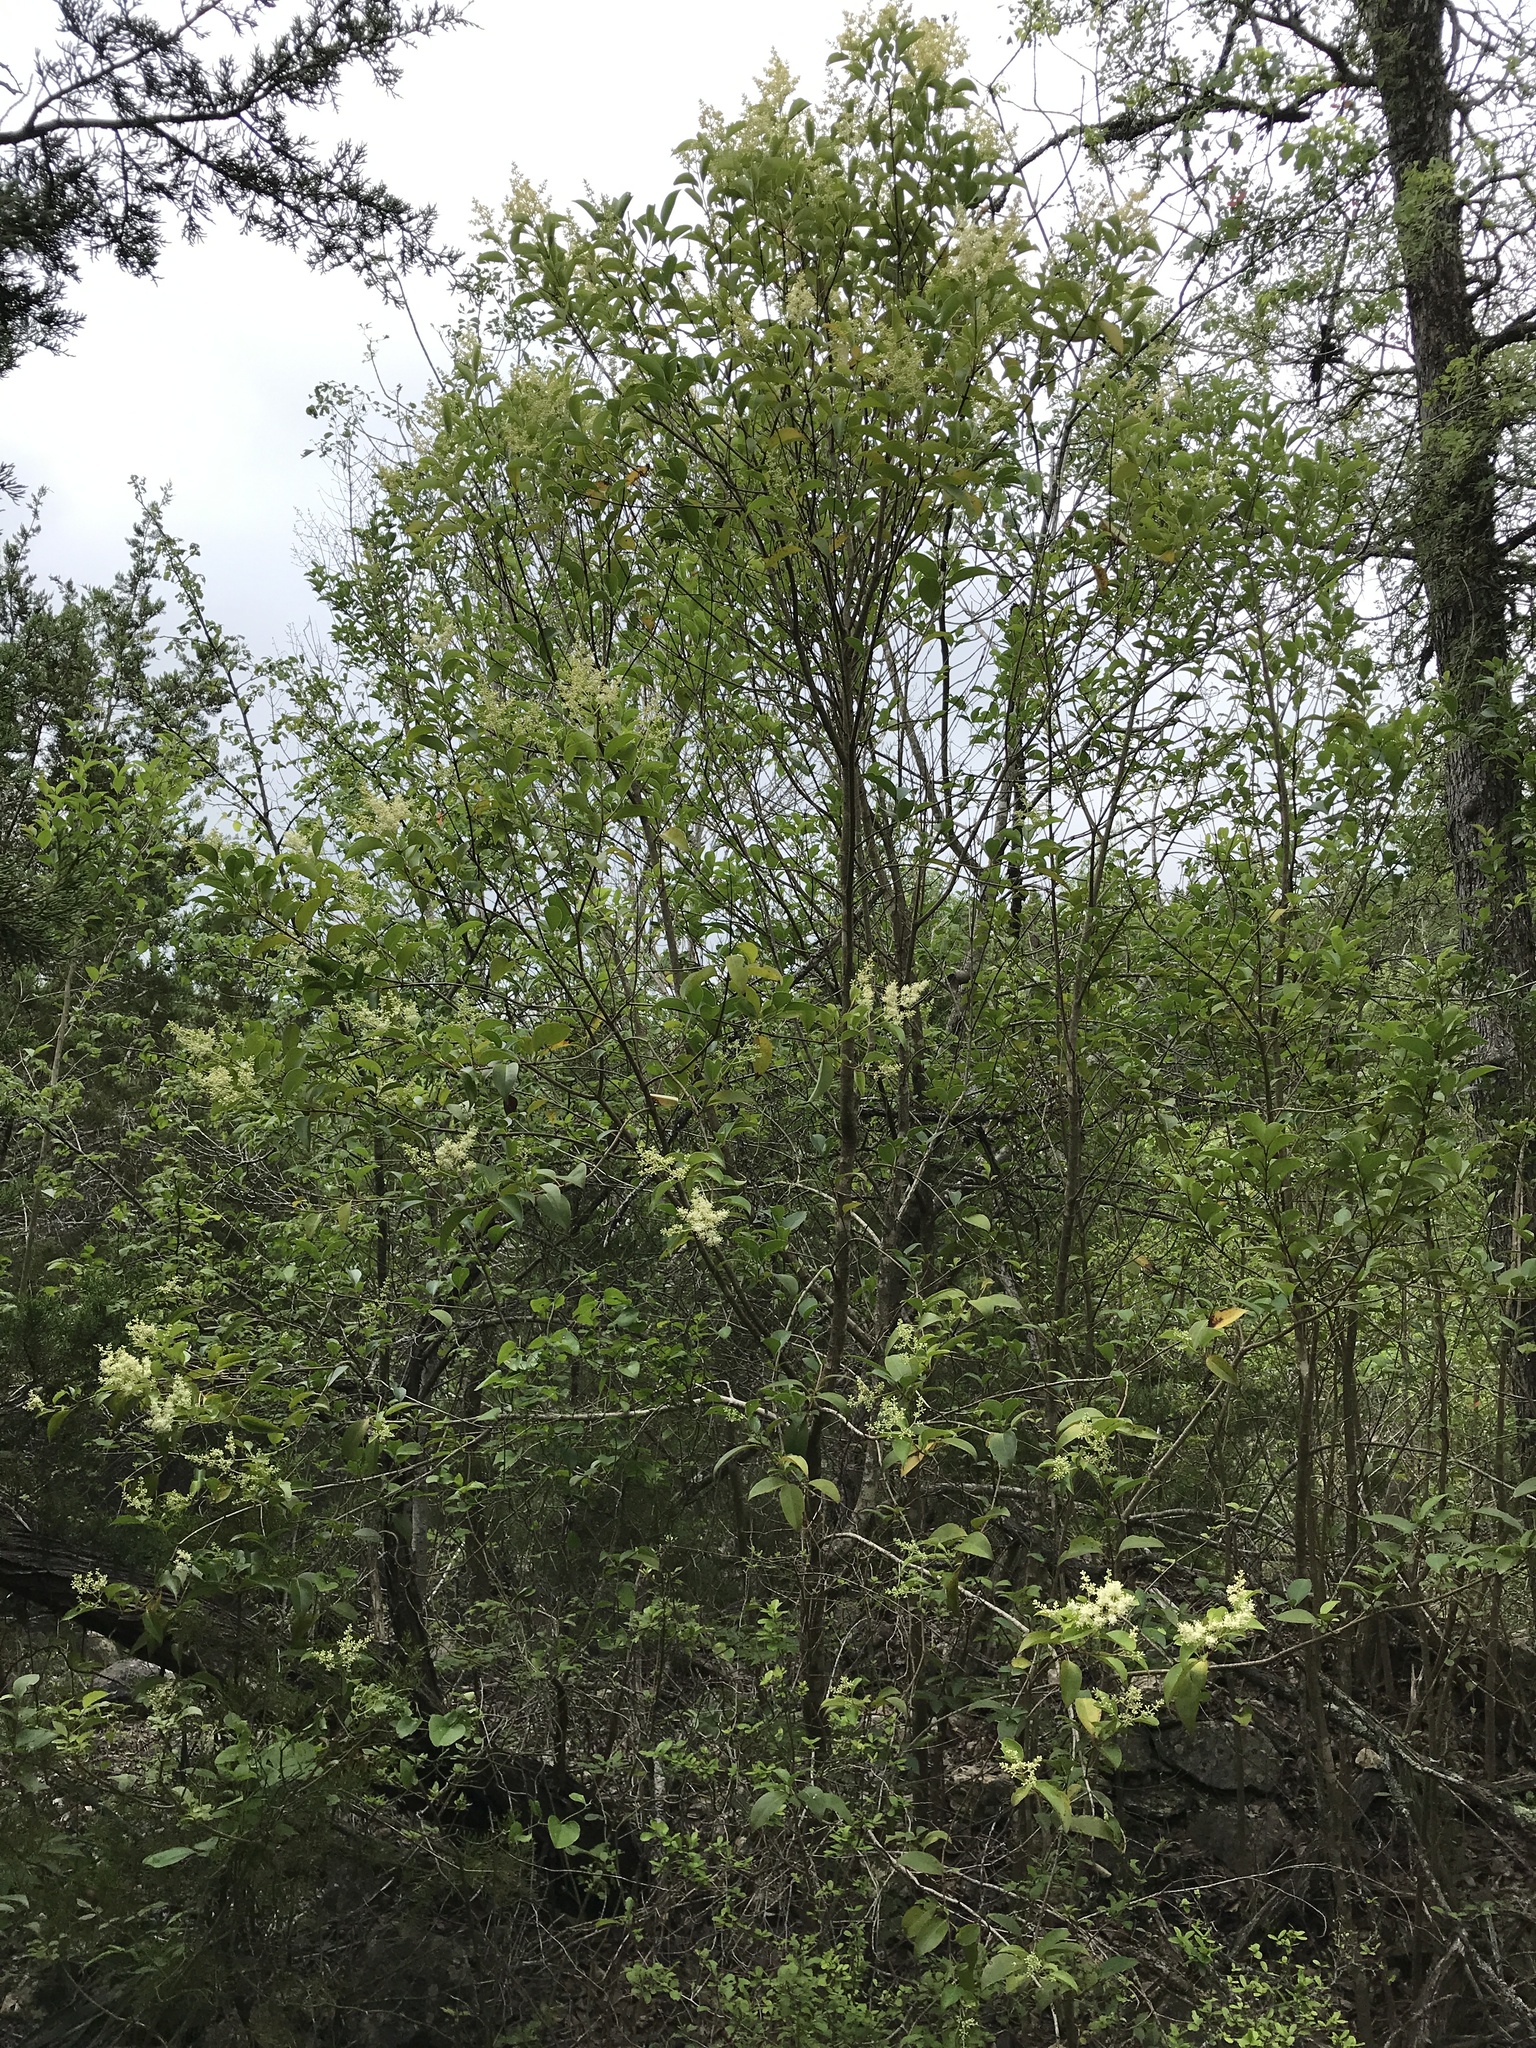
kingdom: Plantae
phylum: Tracheophyta
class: Magnoliopsida
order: Lamiales
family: Oleaceae
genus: Ligustrum
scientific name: Ligustrum lucidum
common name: Glossy privet
